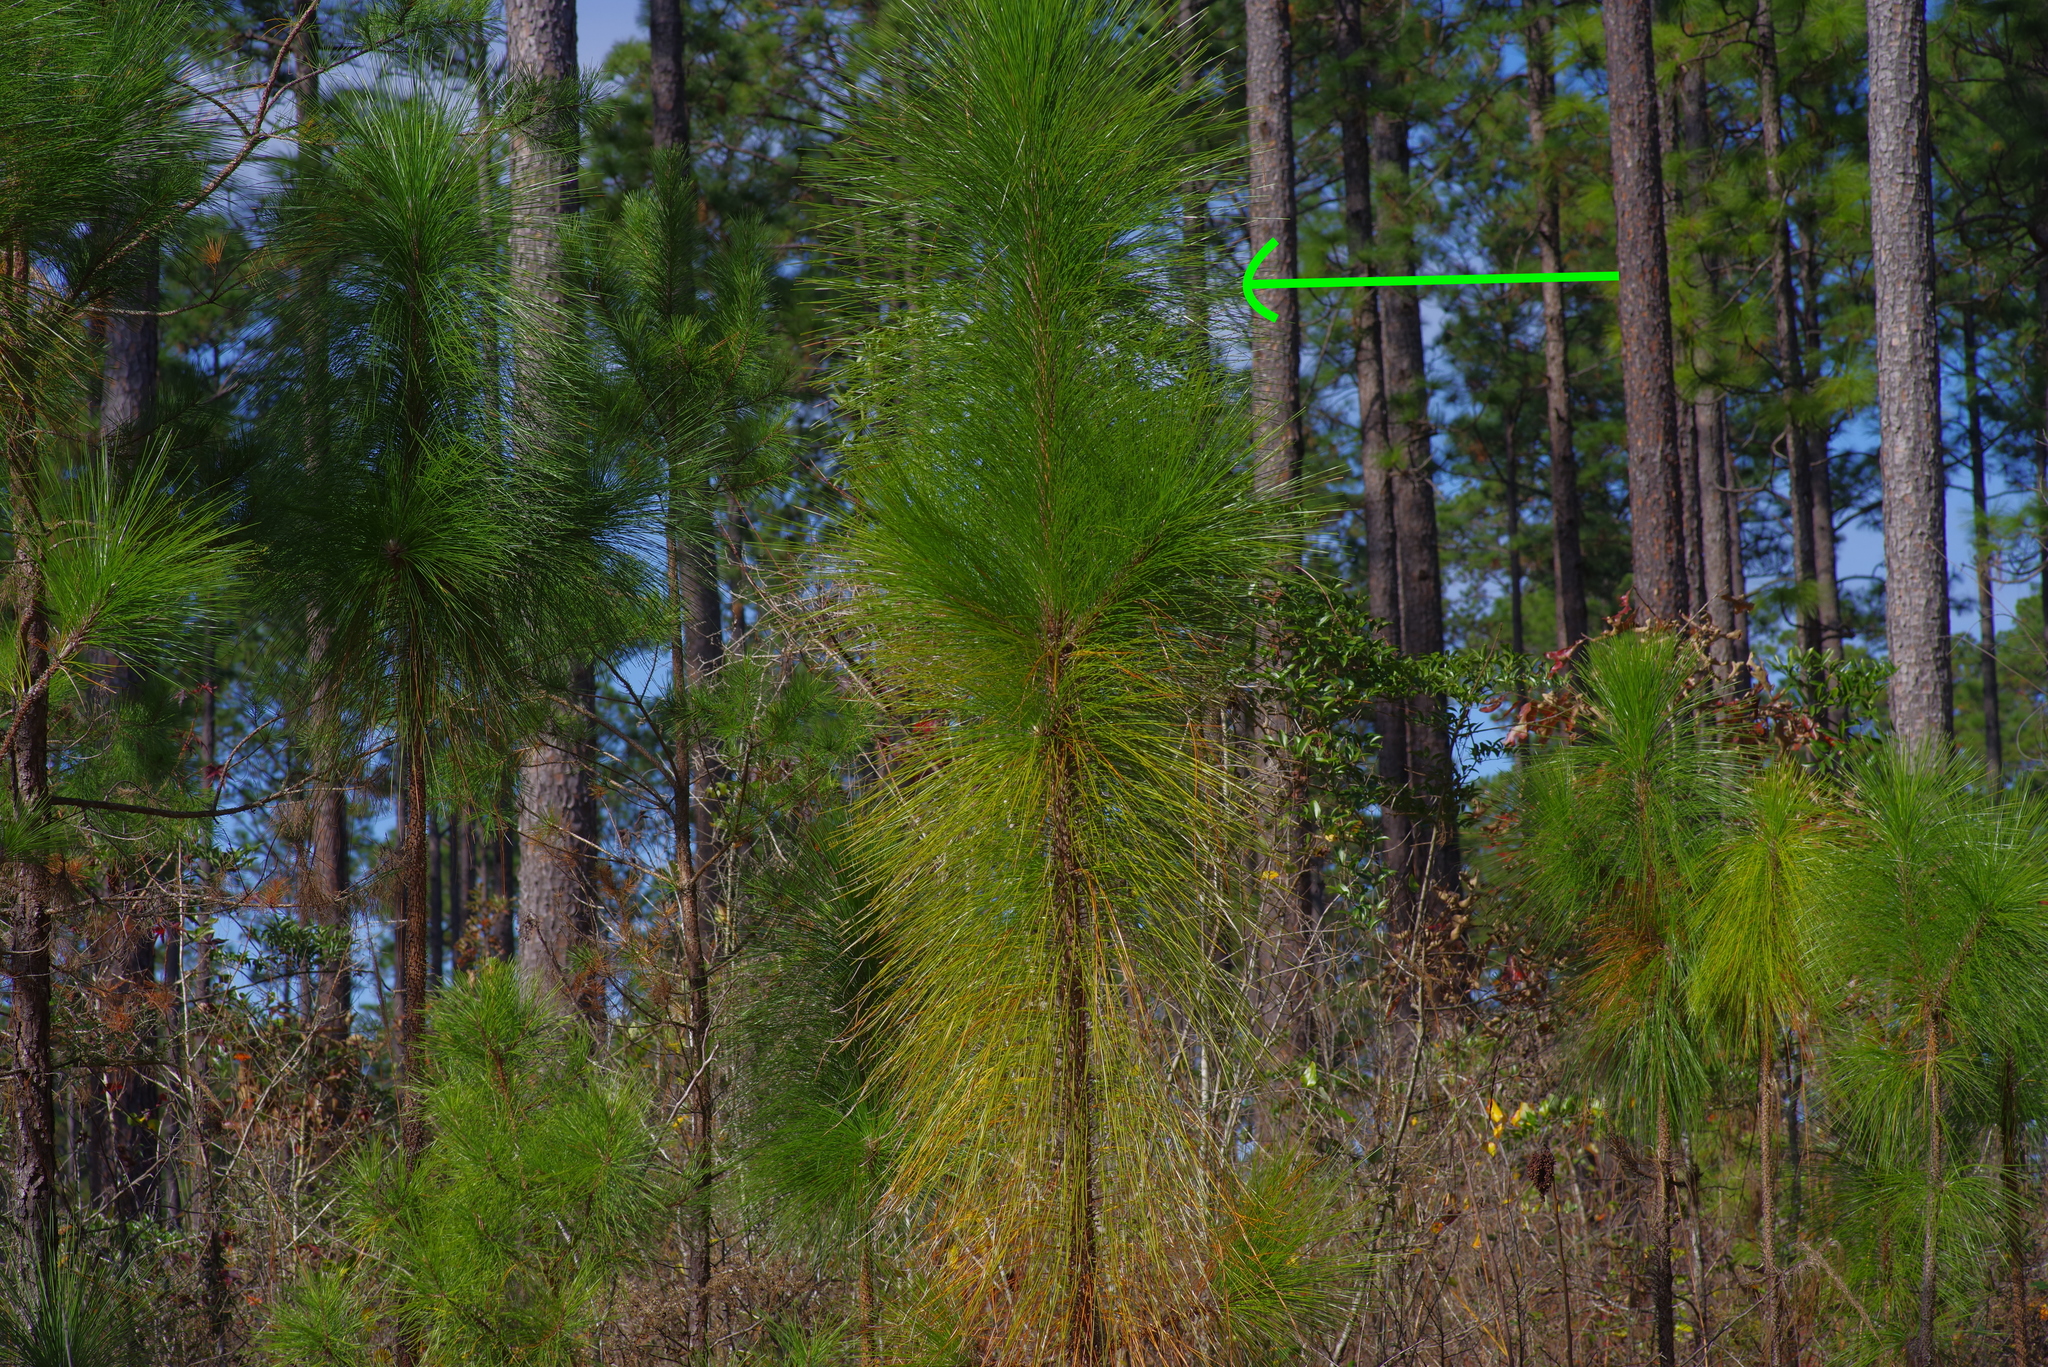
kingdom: Plantae
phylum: Tracheophyta
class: Pinopsida
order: Pinales
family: Pinaceae
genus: Pinus
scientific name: Pinus palustris
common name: Longleaf pine
